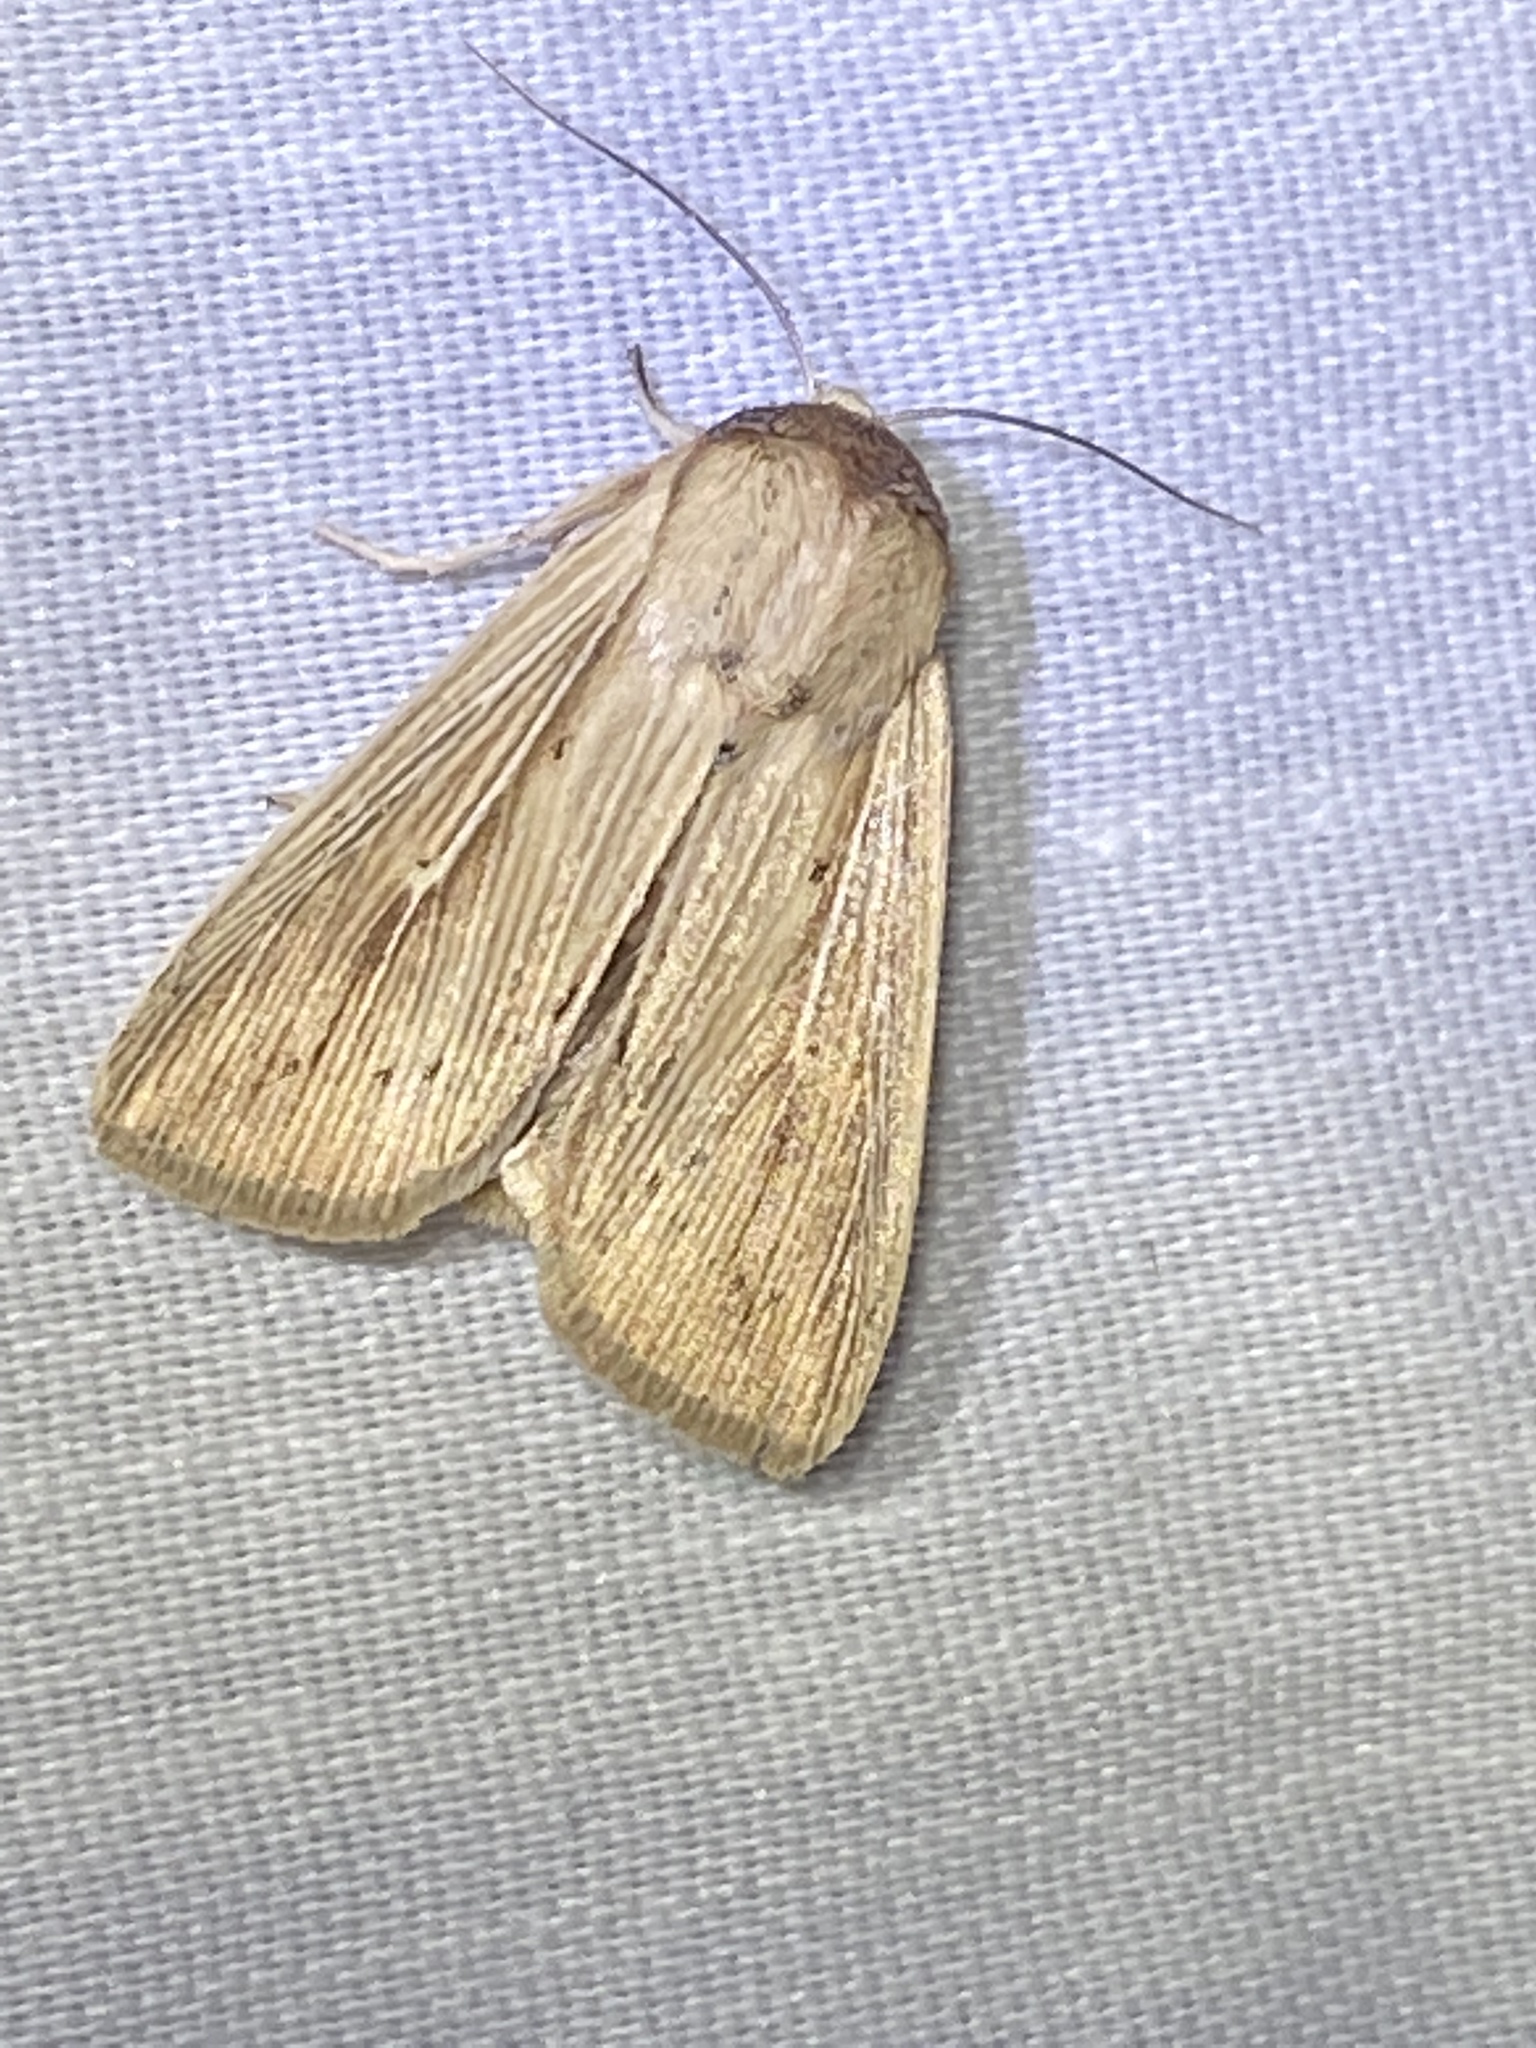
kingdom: Animalia
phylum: Arthropoda
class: Insecta
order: Lepidoptera
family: Noctuidae
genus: Leucania
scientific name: Leucania adjuta
